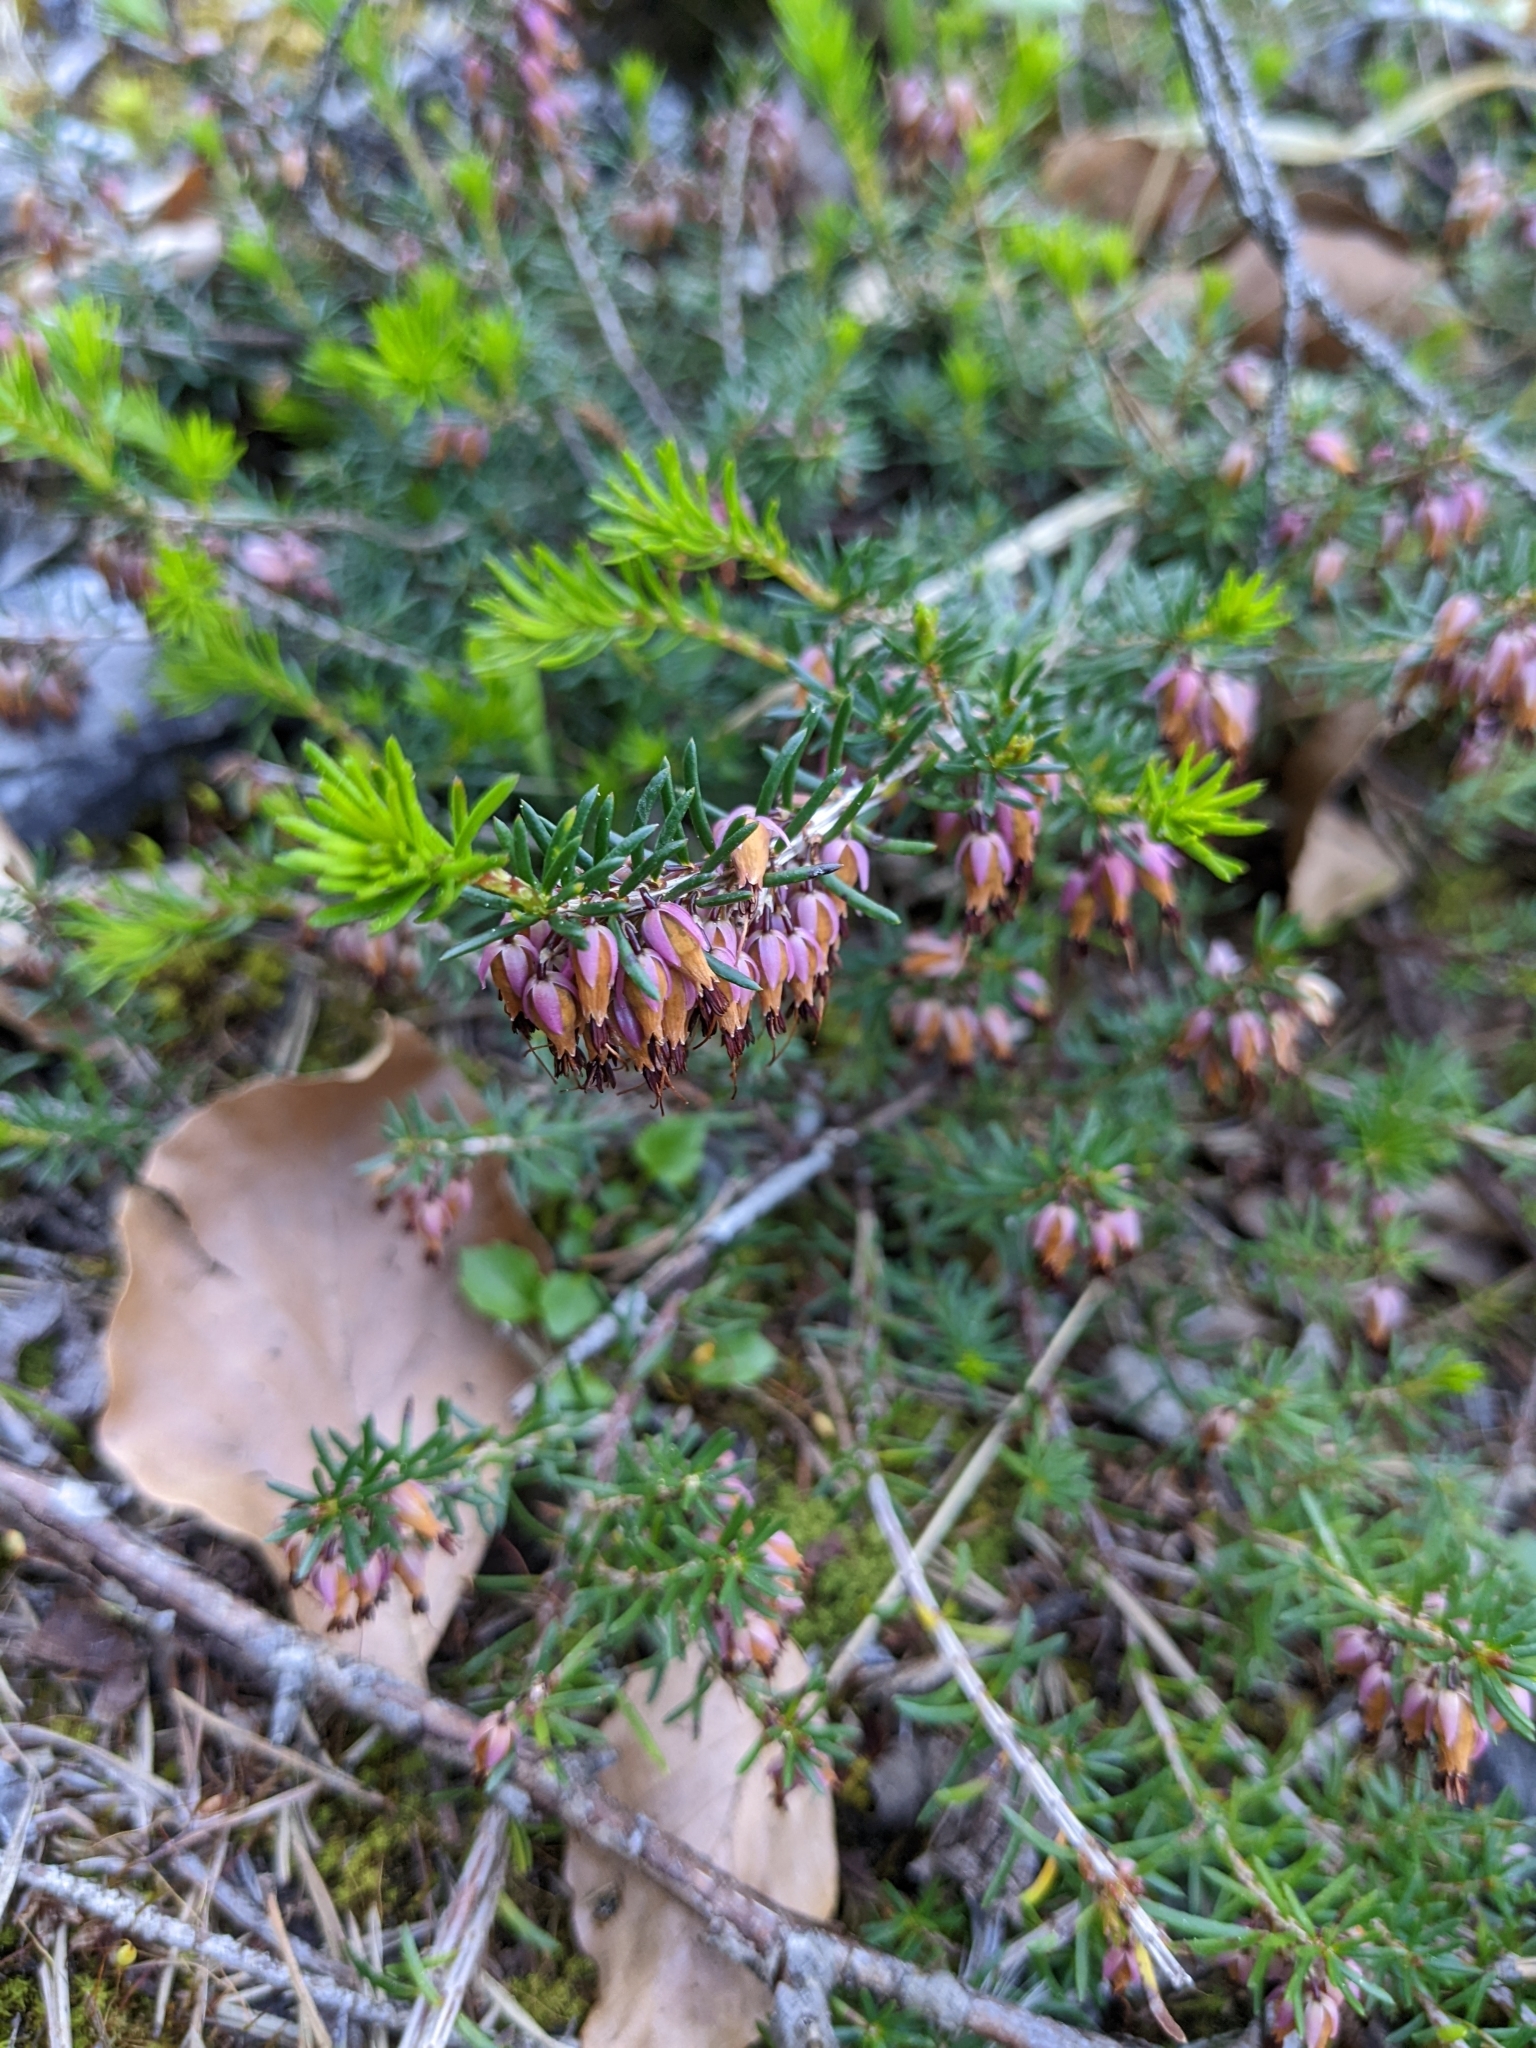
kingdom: Plantae
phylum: Tracheophyta
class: Magnoliopsida
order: Ericales
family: Ericaceae
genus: Erica
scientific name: Erica carnea
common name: Winter heath
